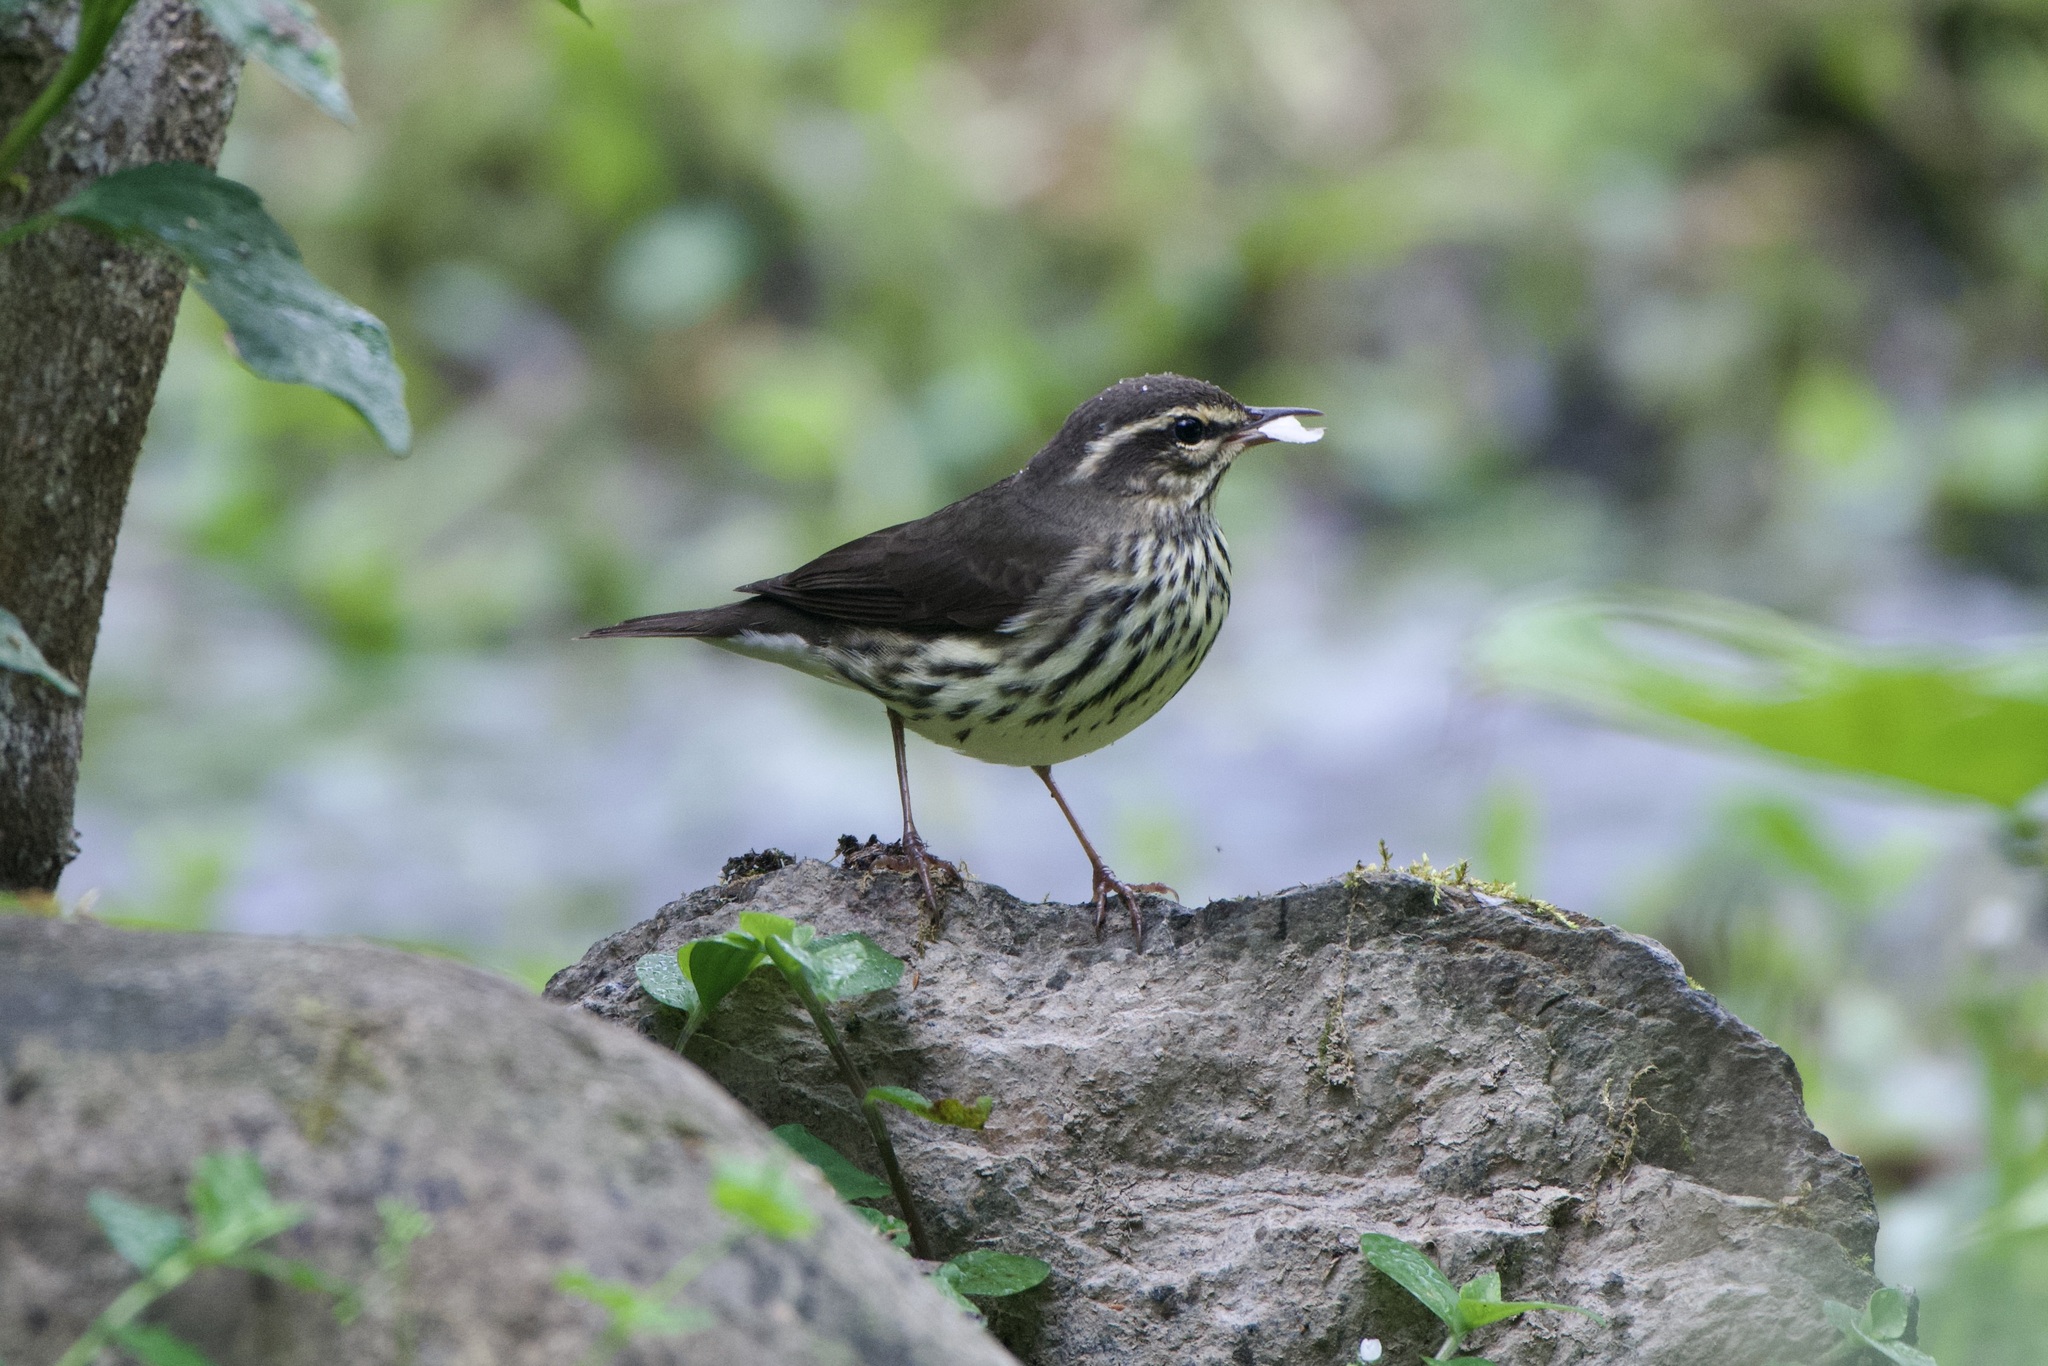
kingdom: Animalia
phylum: Chordata
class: Aves
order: Passeriformes
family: Parulidae
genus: Parkesia
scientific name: Parkesia noveboracensis
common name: Northern waterthrush
